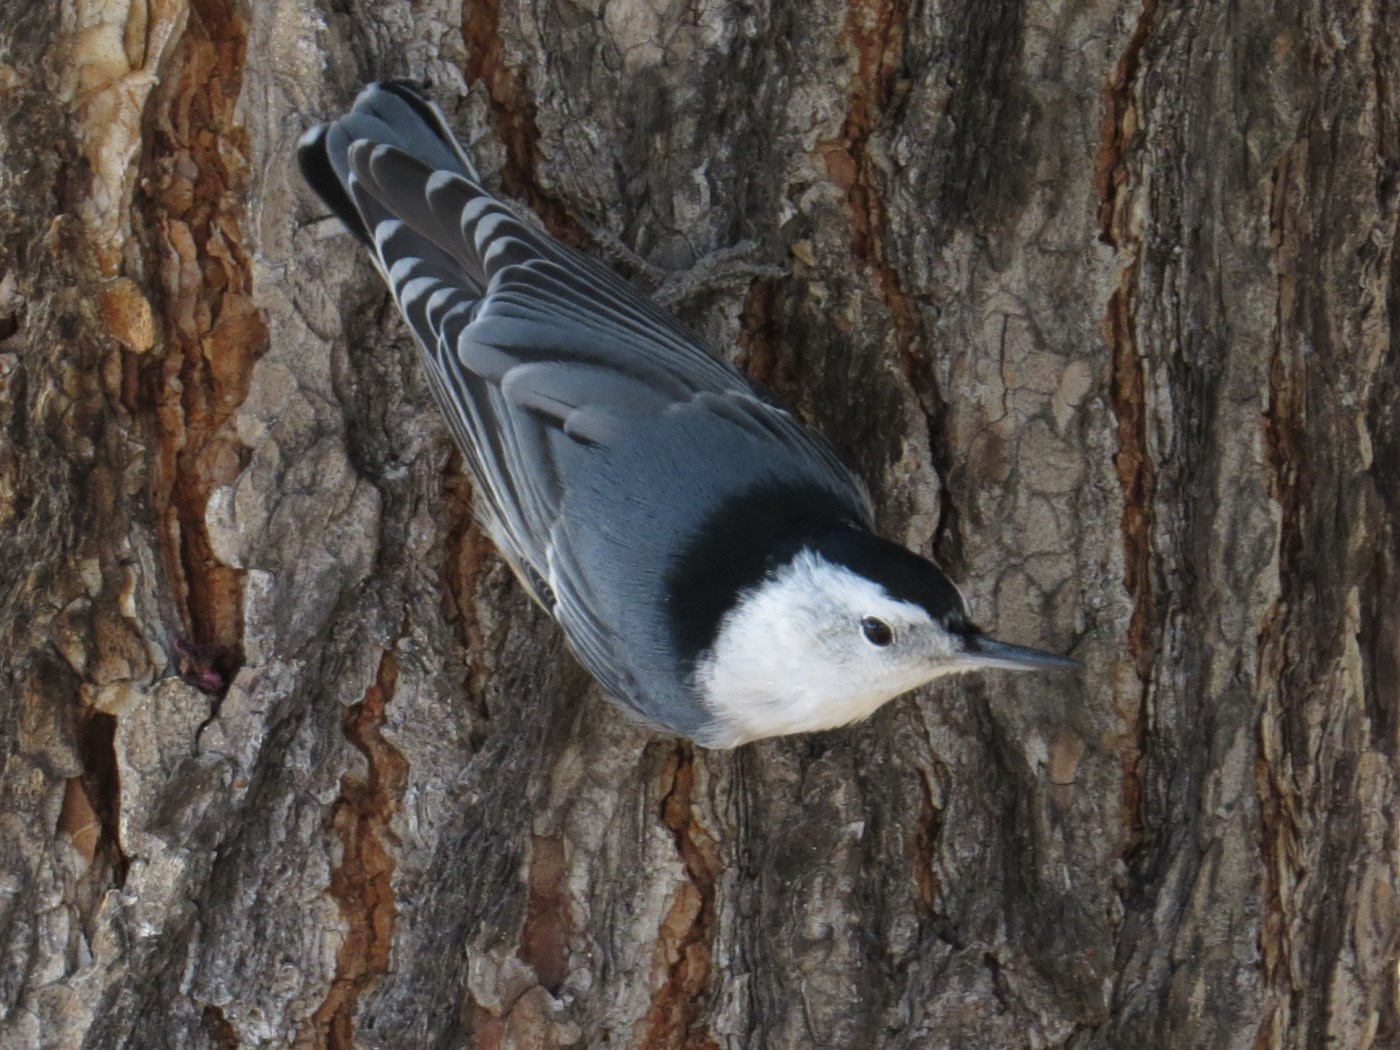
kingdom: Animalia
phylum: Chordata
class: Aves
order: Passeriformes
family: Sittidae
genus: Sitta
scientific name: Sitta carolinensis
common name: White-breasted nuthatch
